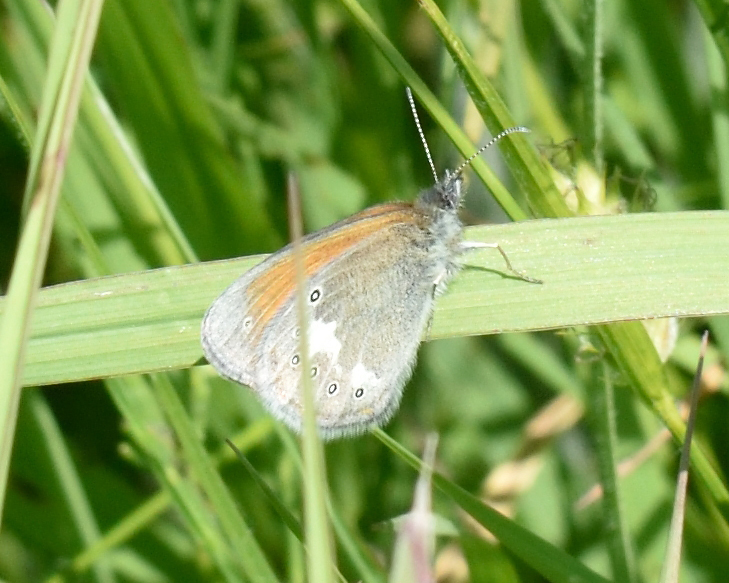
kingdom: Animalia
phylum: Arthropoda
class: Insecta
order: Lepidoptera
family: Nymphalidae
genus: Coenonympha
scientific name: Coenonympha iphis
